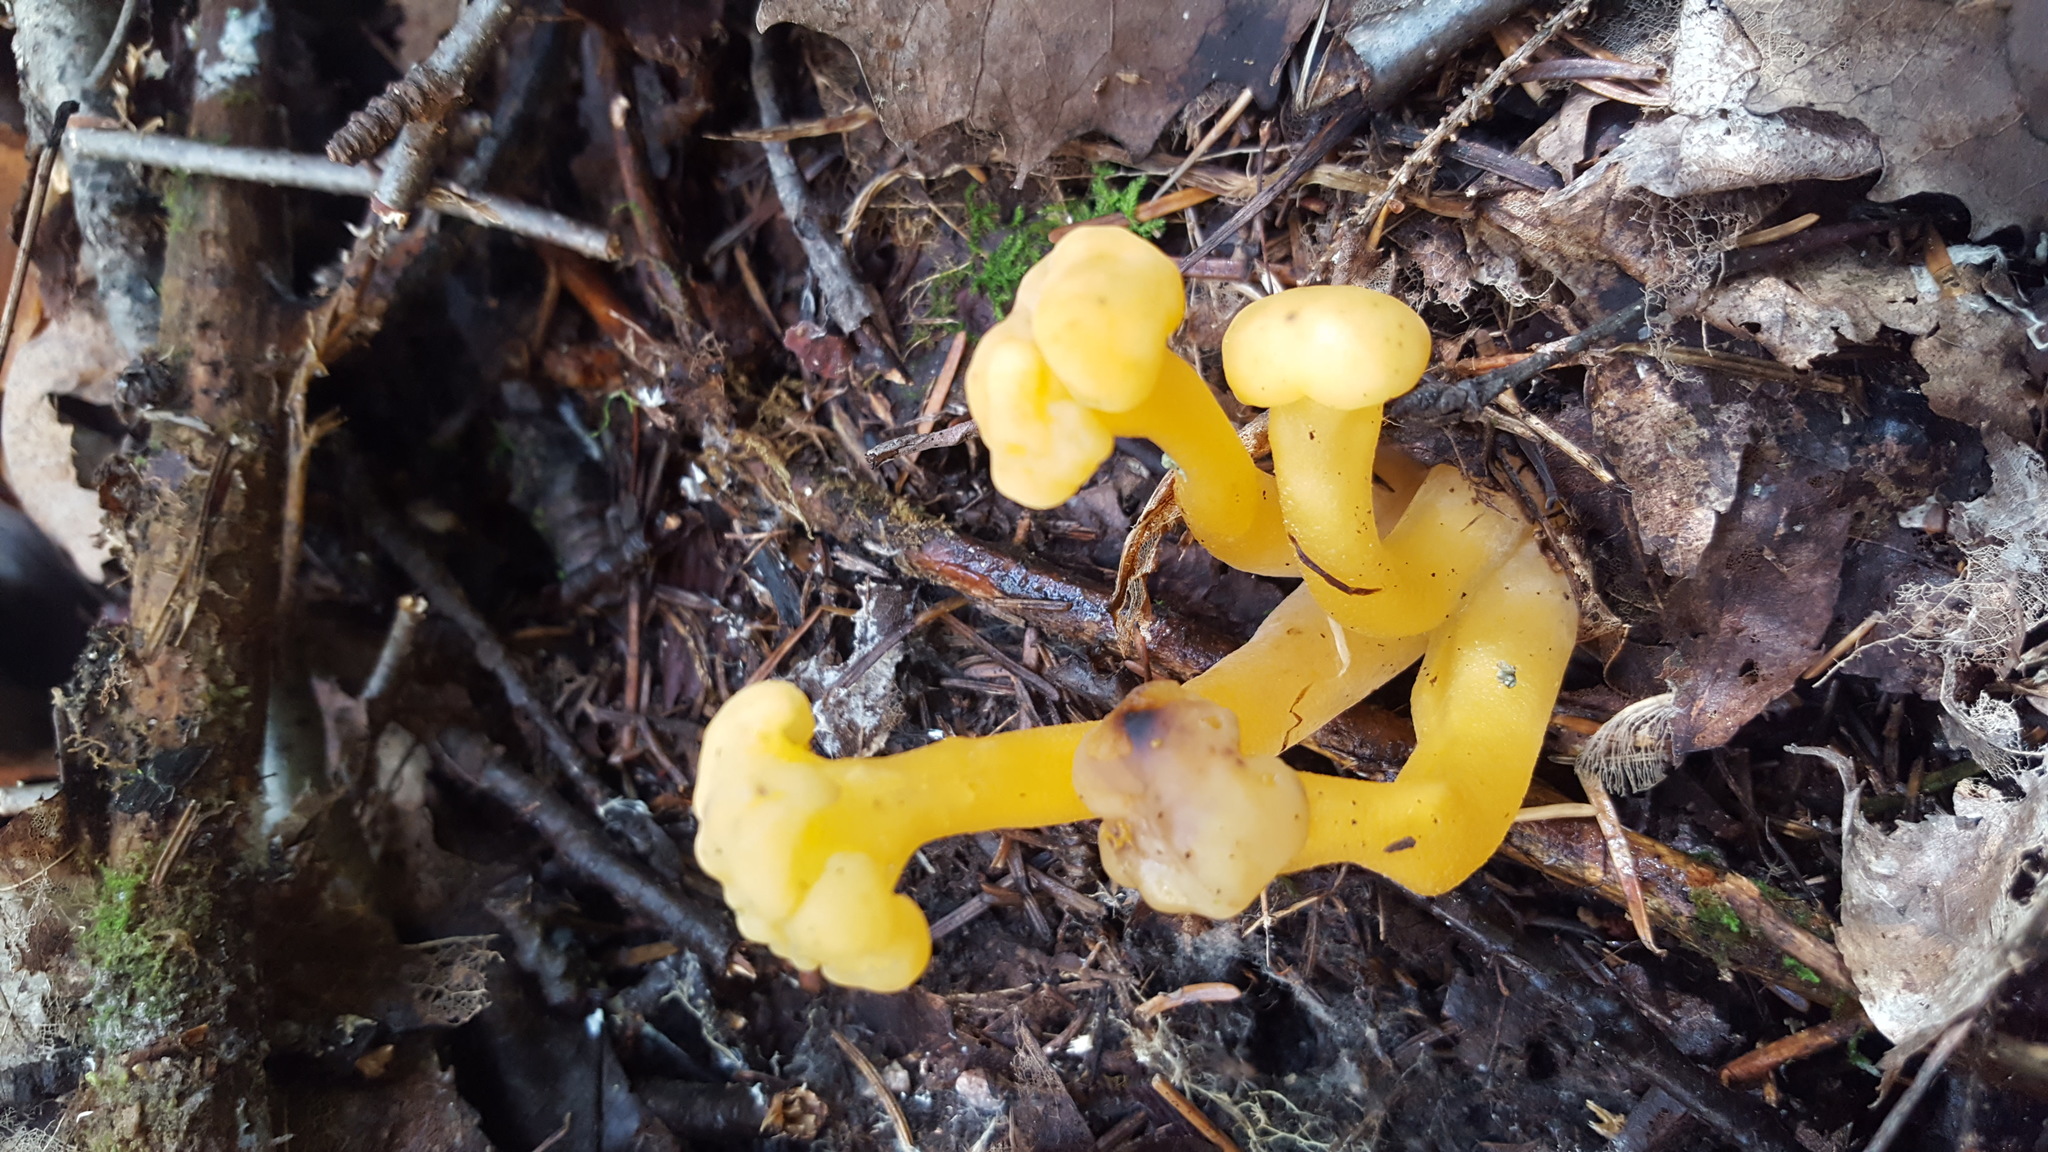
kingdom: Fungi
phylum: Ascomycota
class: Leotiomycetes
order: Leotiales
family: Leotiaceae
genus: Leotia
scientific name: Leotia lubrica
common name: Jellybaby
